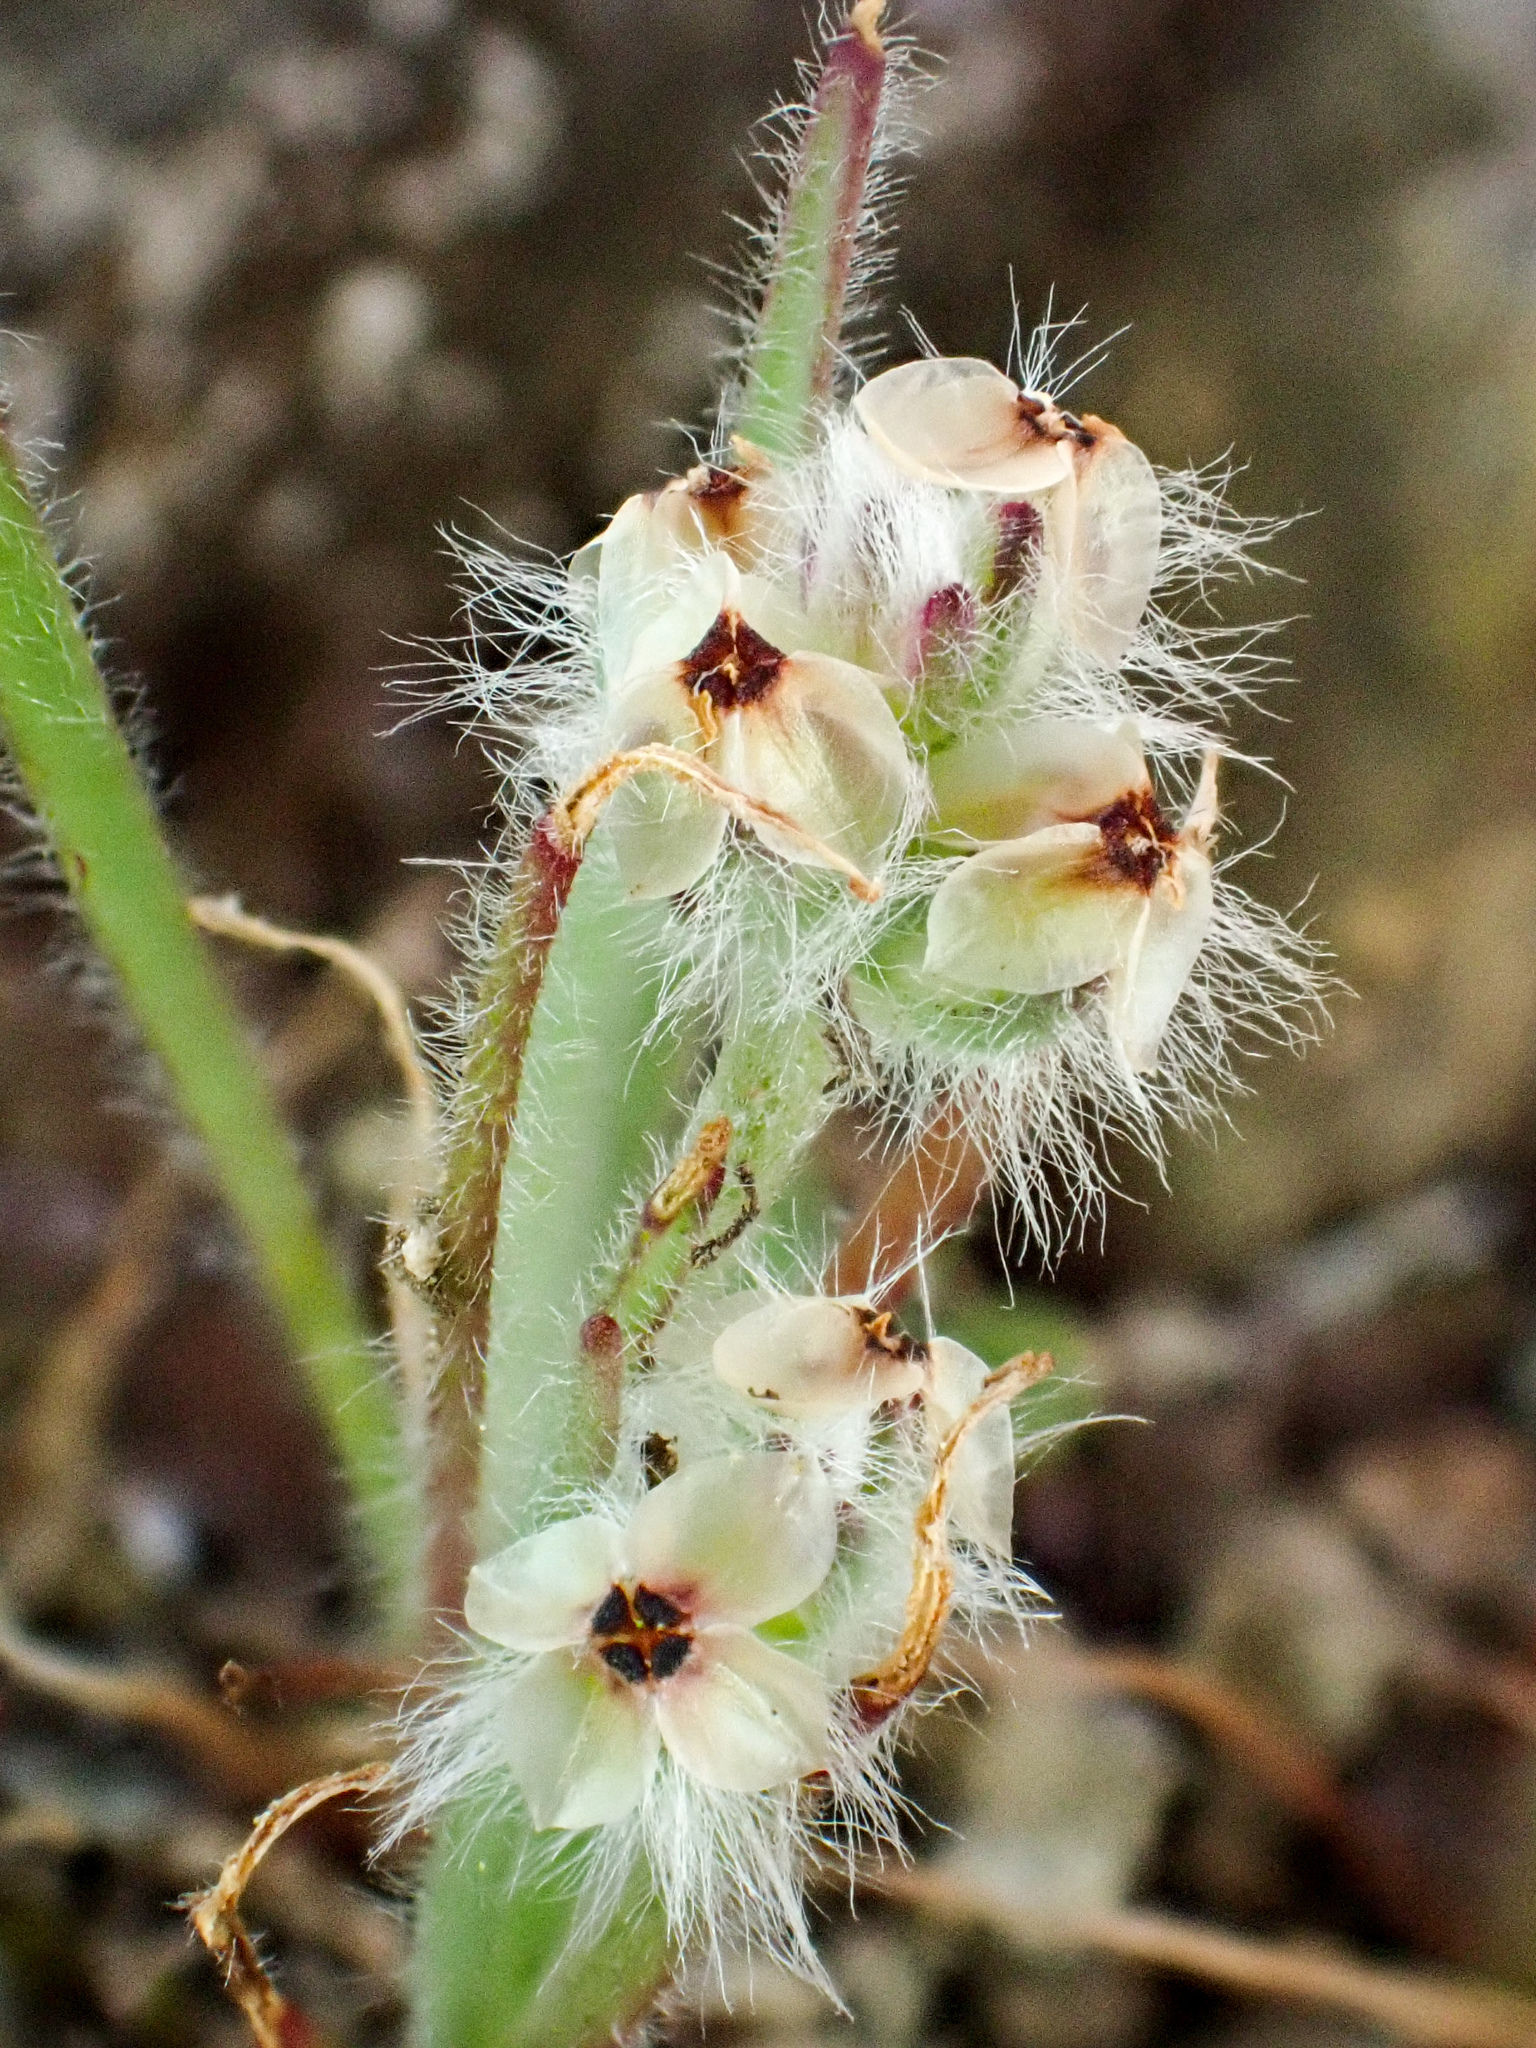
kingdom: Plantae
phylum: Tracheophyta
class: Magnoliopsida
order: Lamiales
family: Plantaginaceae
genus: Plantago
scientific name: Plantago erecta
